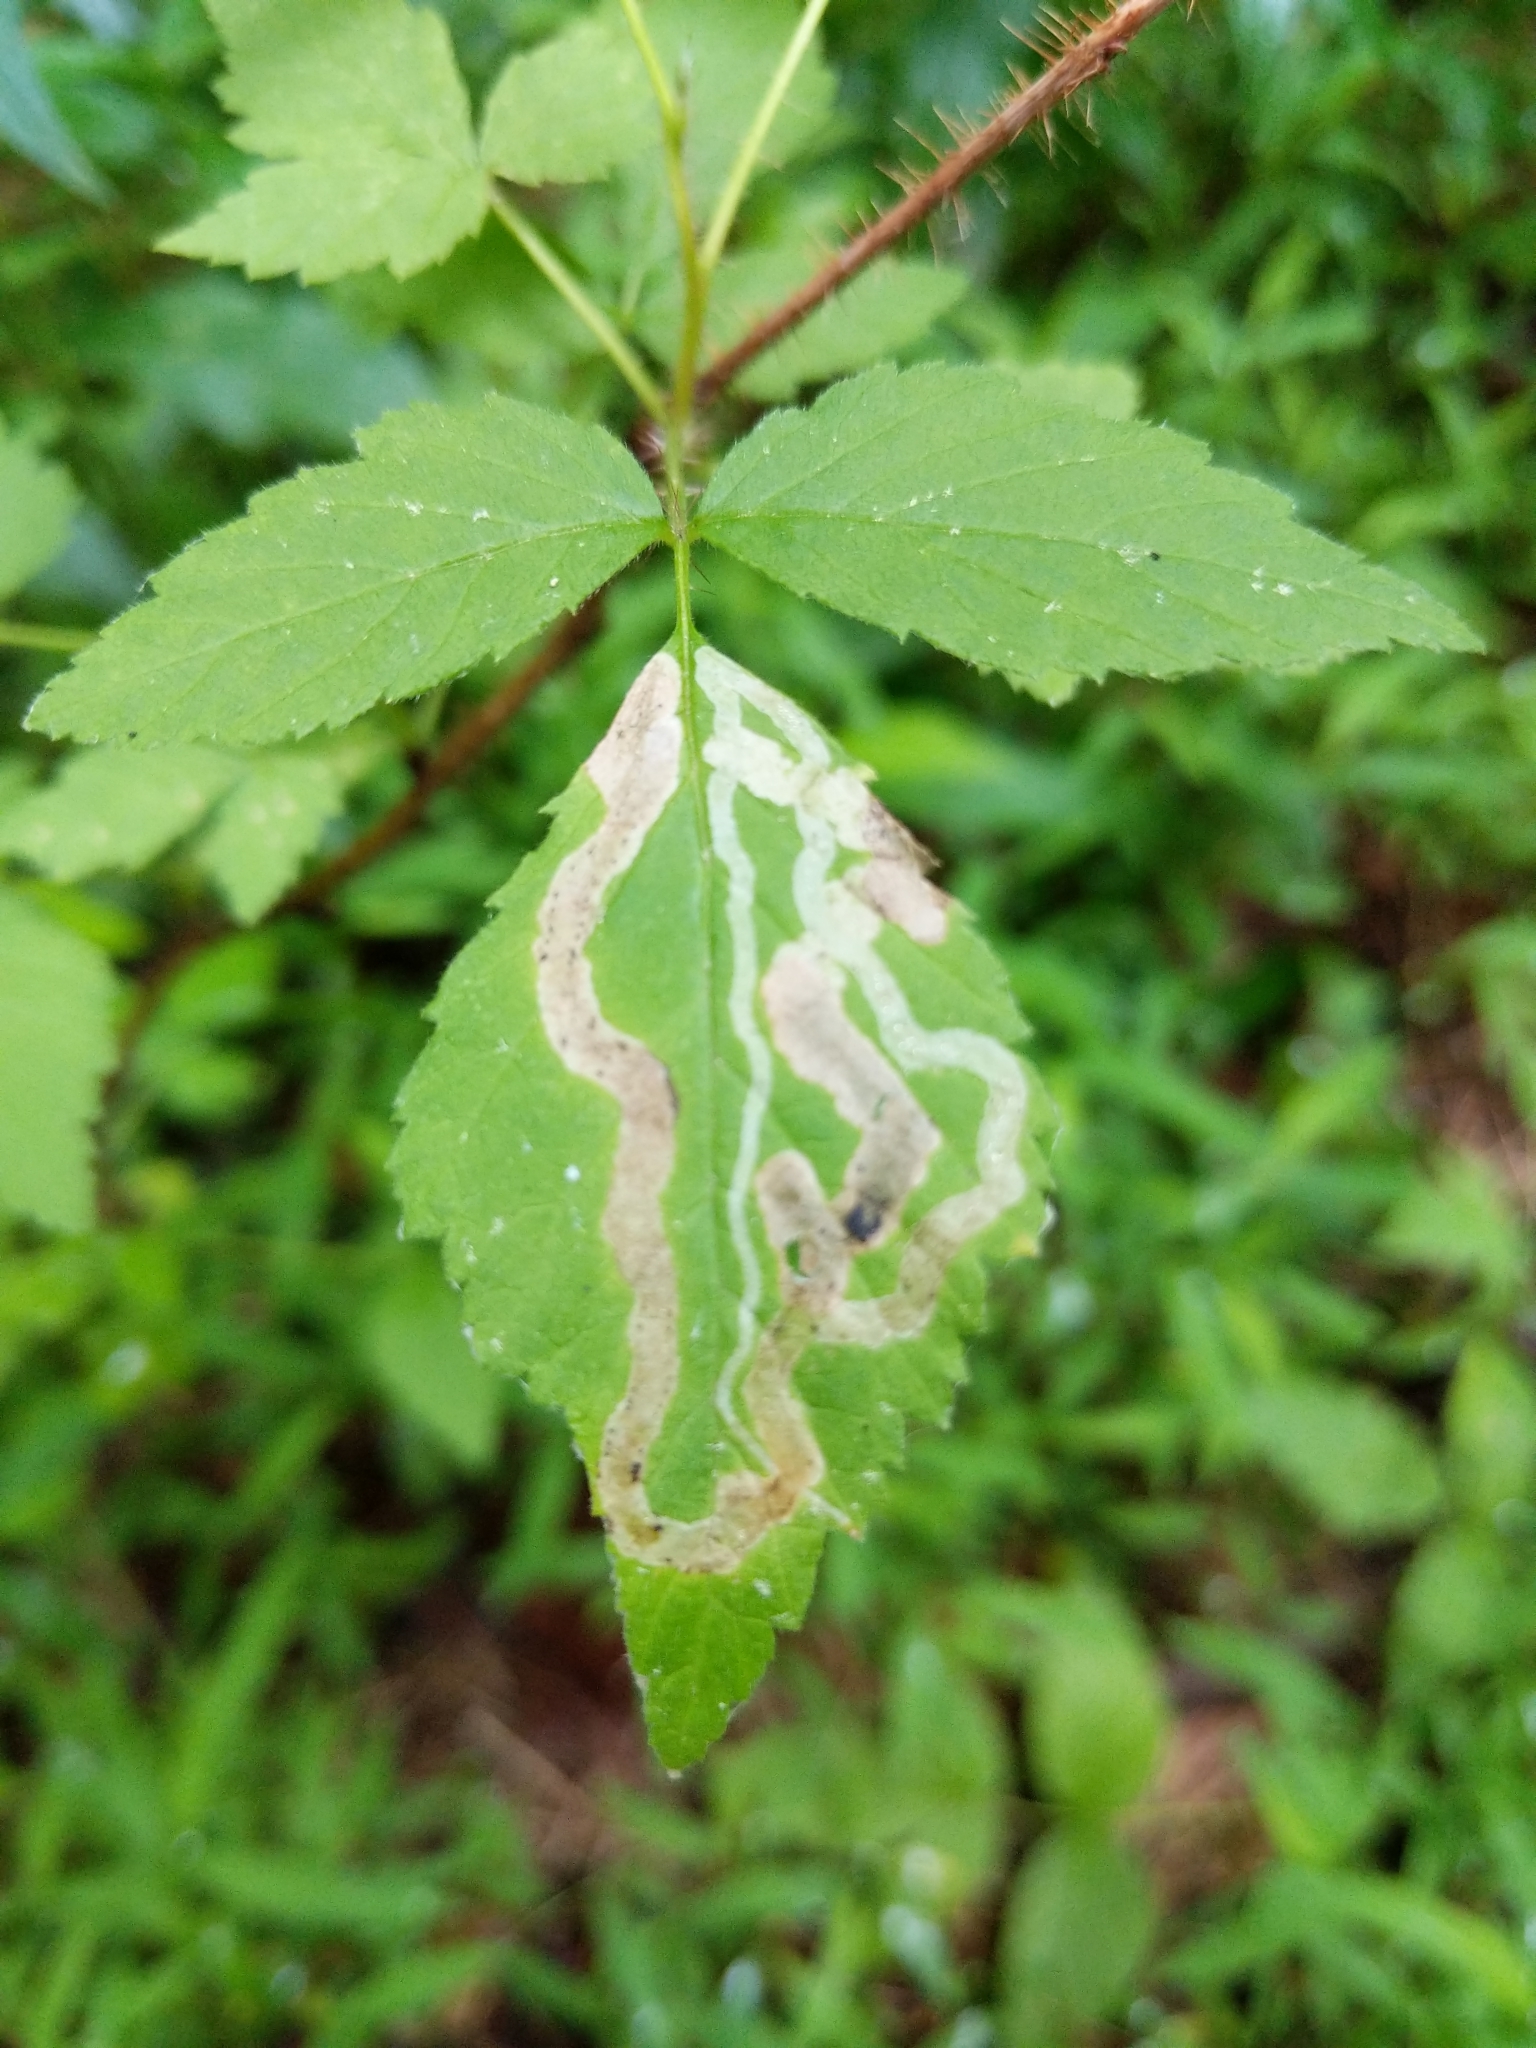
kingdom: Animalia
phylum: Arthropoda
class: Insecta
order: Diptera
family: Agromyzidae
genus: Agromyza
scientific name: Agromyza vockerothi
